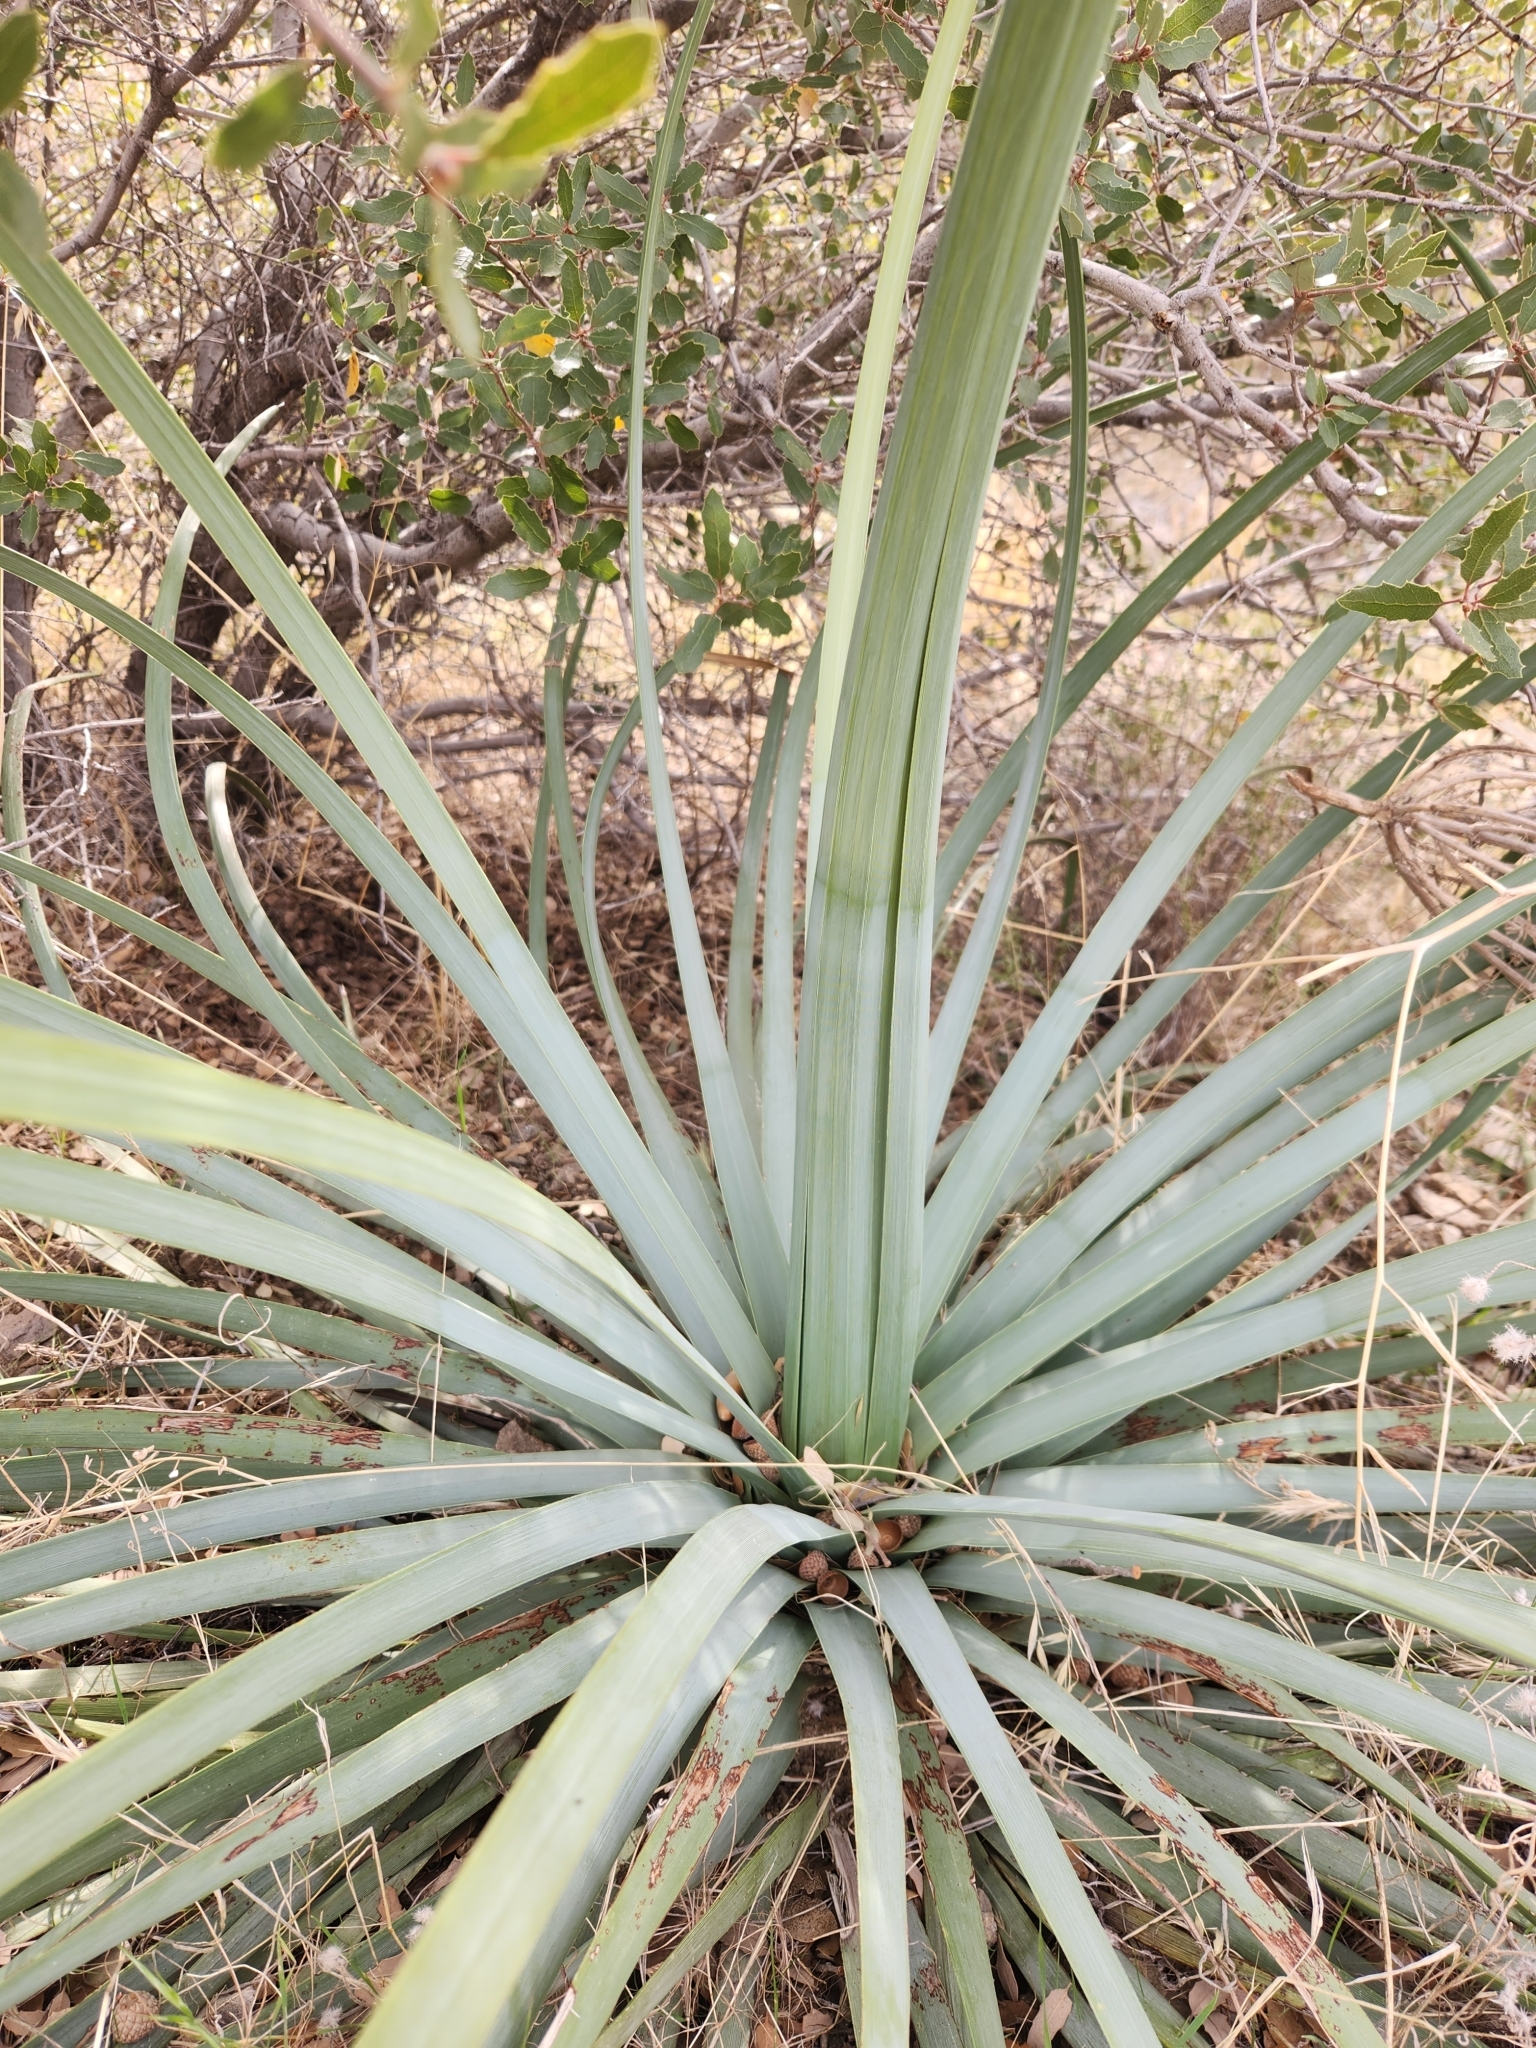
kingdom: Plantae
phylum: Tracheophyta
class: Liliopsida
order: Asparagales
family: Asparagaceae
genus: Hesperoyucca
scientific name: Hesperoyucca whipplei
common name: Our lord's-candle
